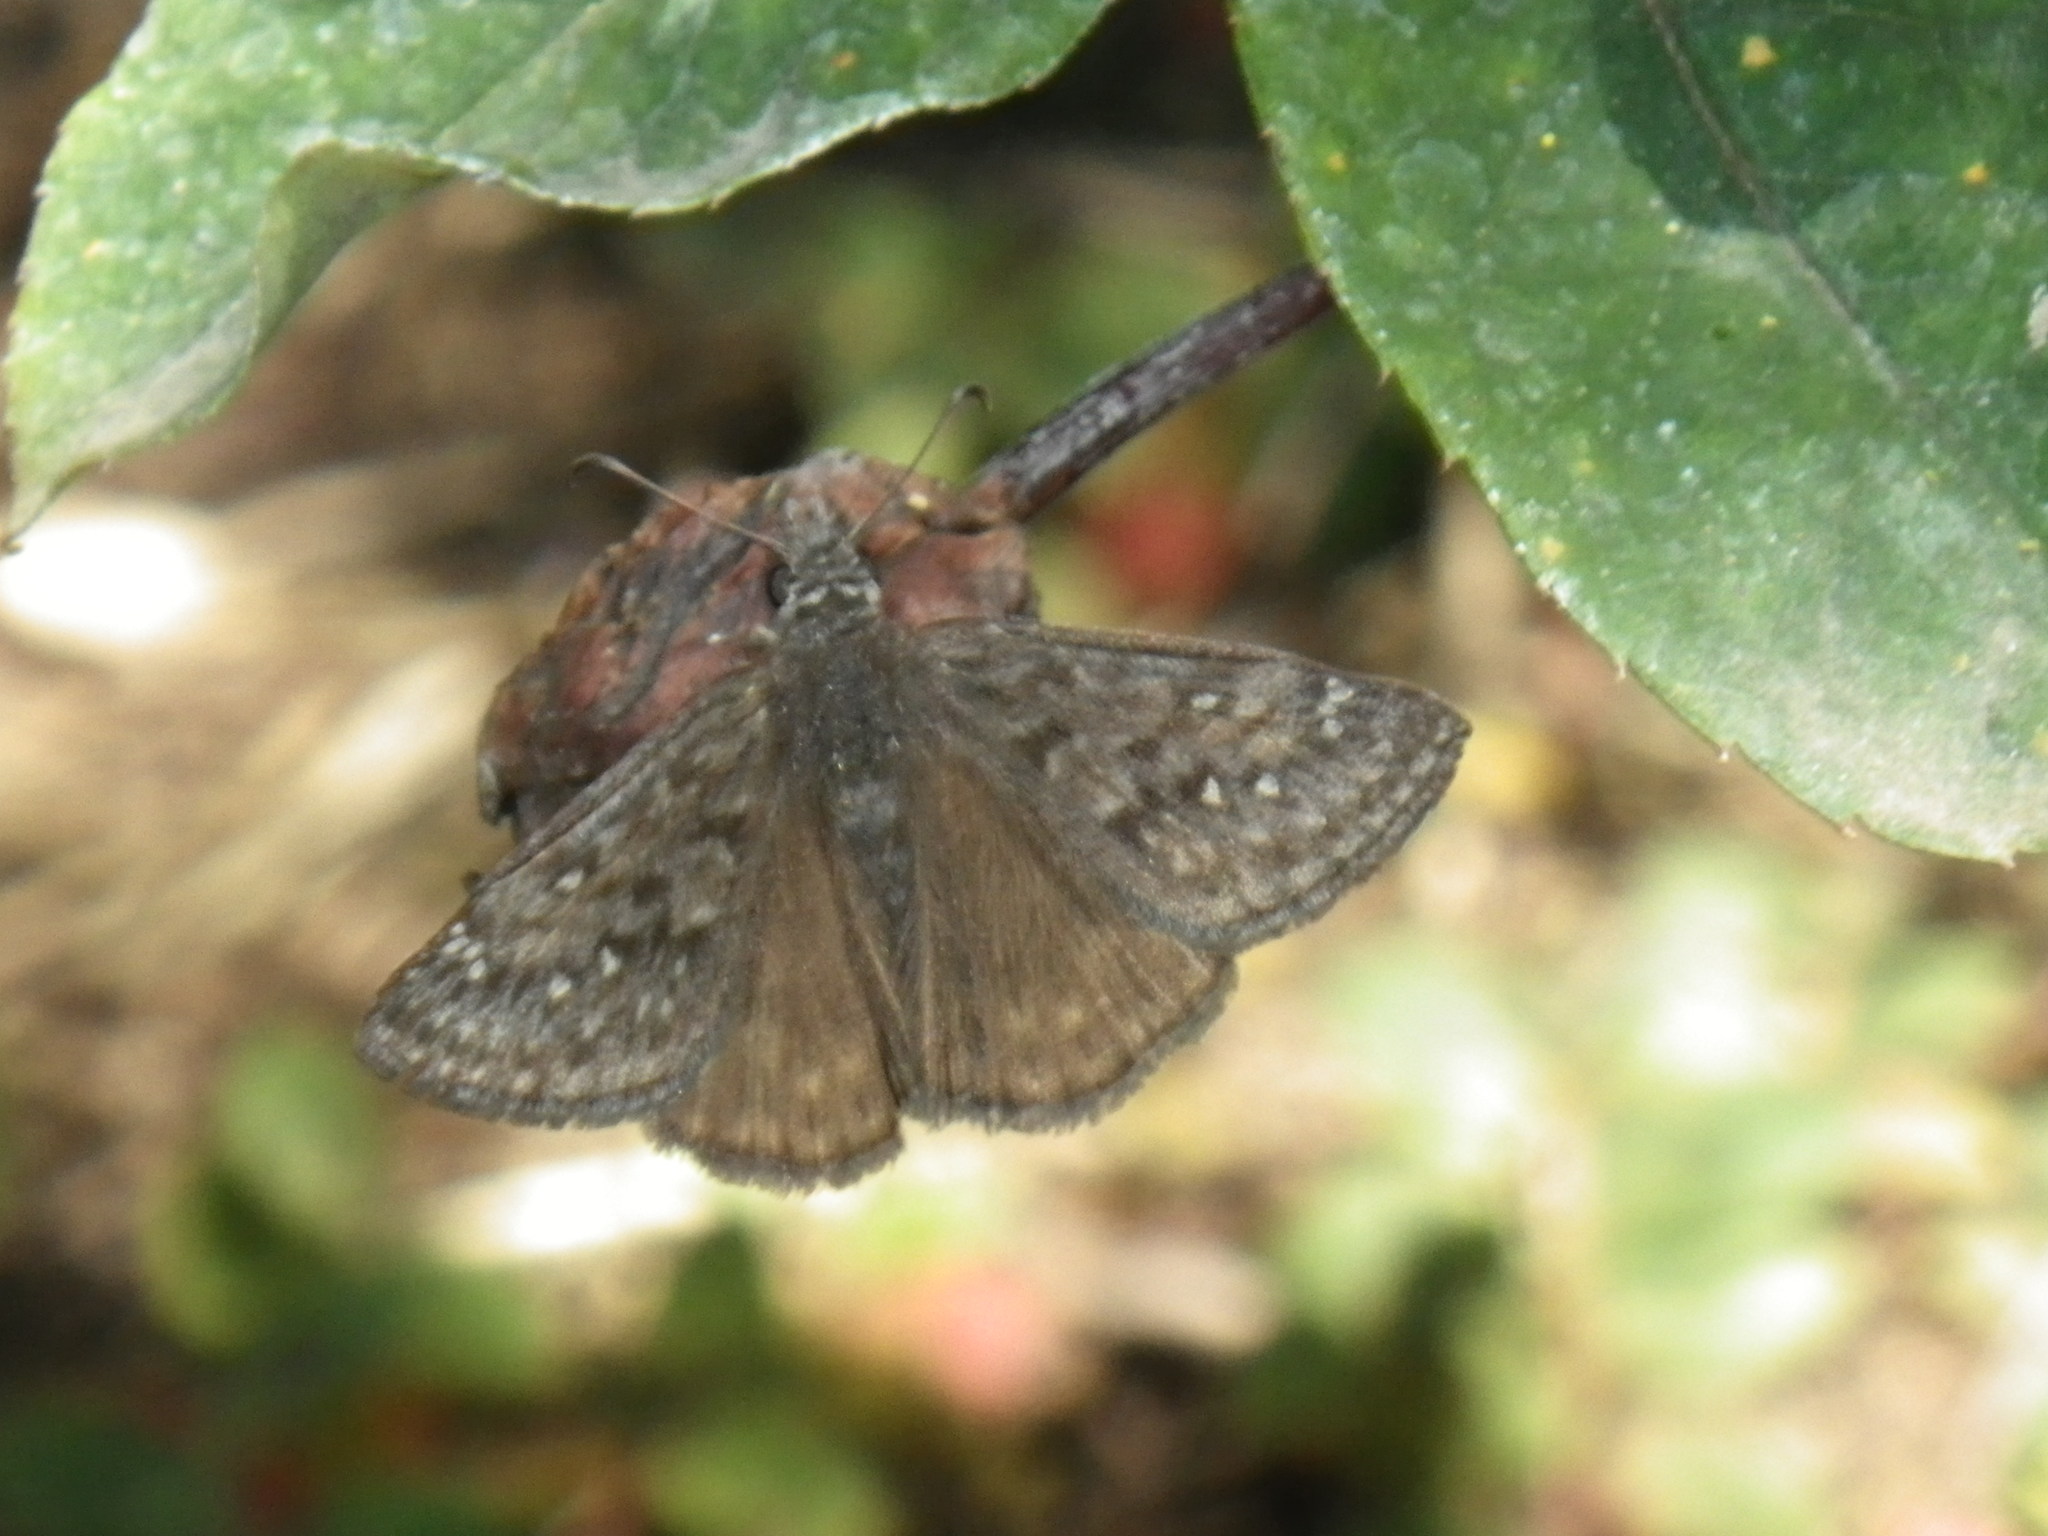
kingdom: Animalia
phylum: Arthropoda
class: Insecta
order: Lepidoptera
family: Hesperiidae
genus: Erynnis
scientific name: Erynnis propertius
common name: Propertius duskywing
